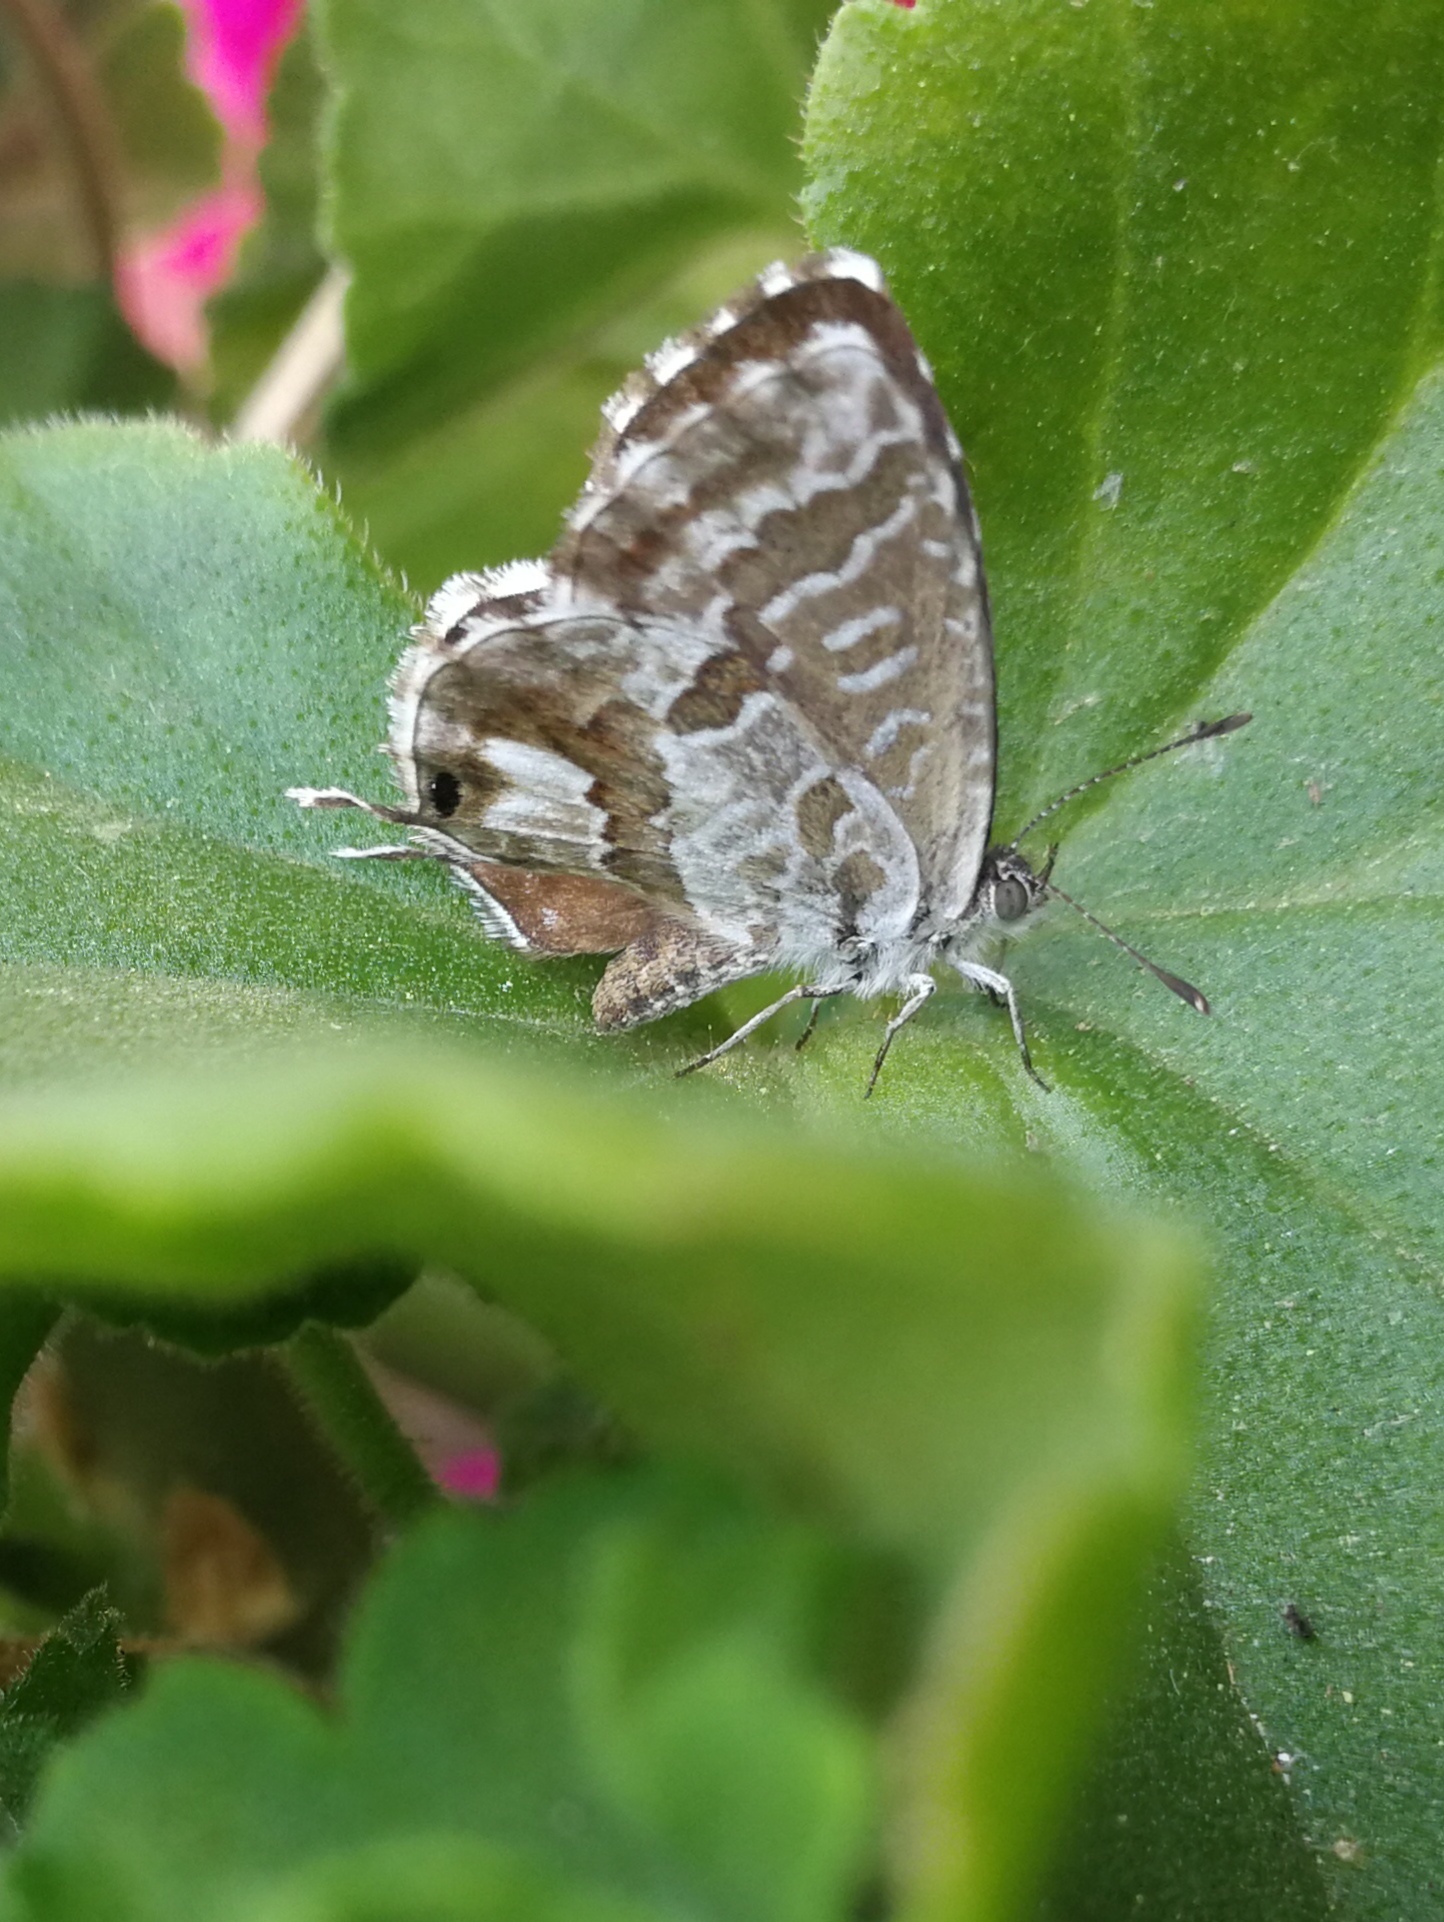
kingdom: Animalia
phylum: Arthropoda
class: Insecta
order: Lepidoptera
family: Lycaenidae
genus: Cacyreus
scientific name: Cacyreus marshalli
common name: Geranium bronze
